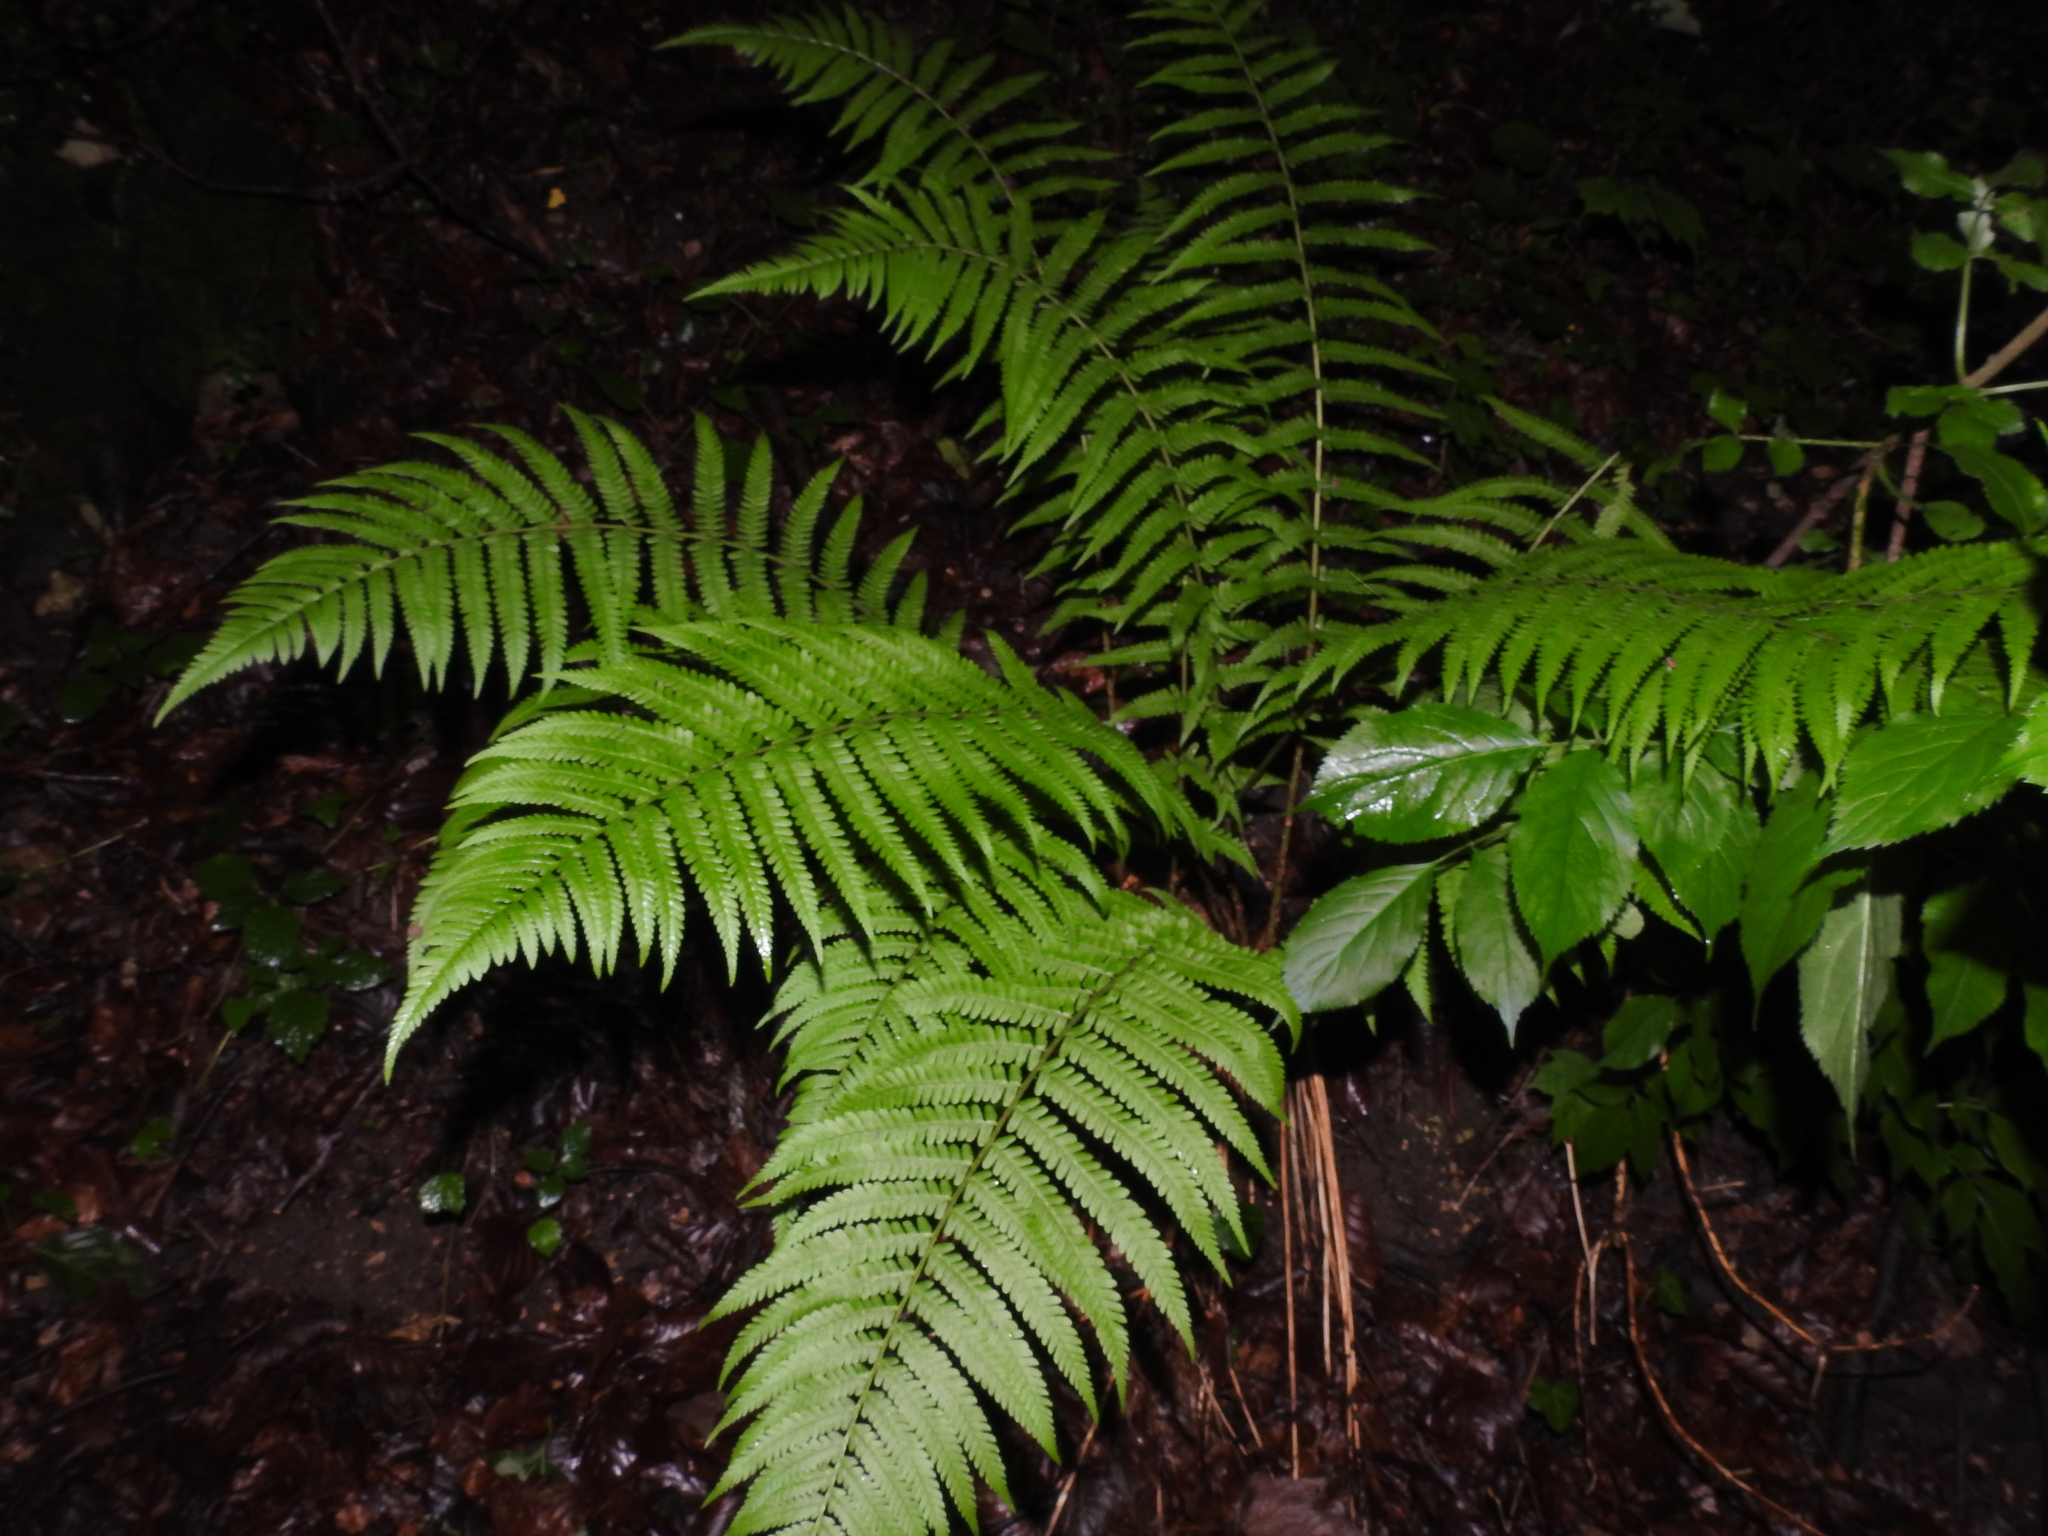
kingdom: Plantae
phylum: Tracheophyta
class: Polypodiopsida
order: Polypodiales
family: Dryopteridaceae
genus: Dryopteris
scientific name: Dryopteris filix-mas
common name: Male fern
